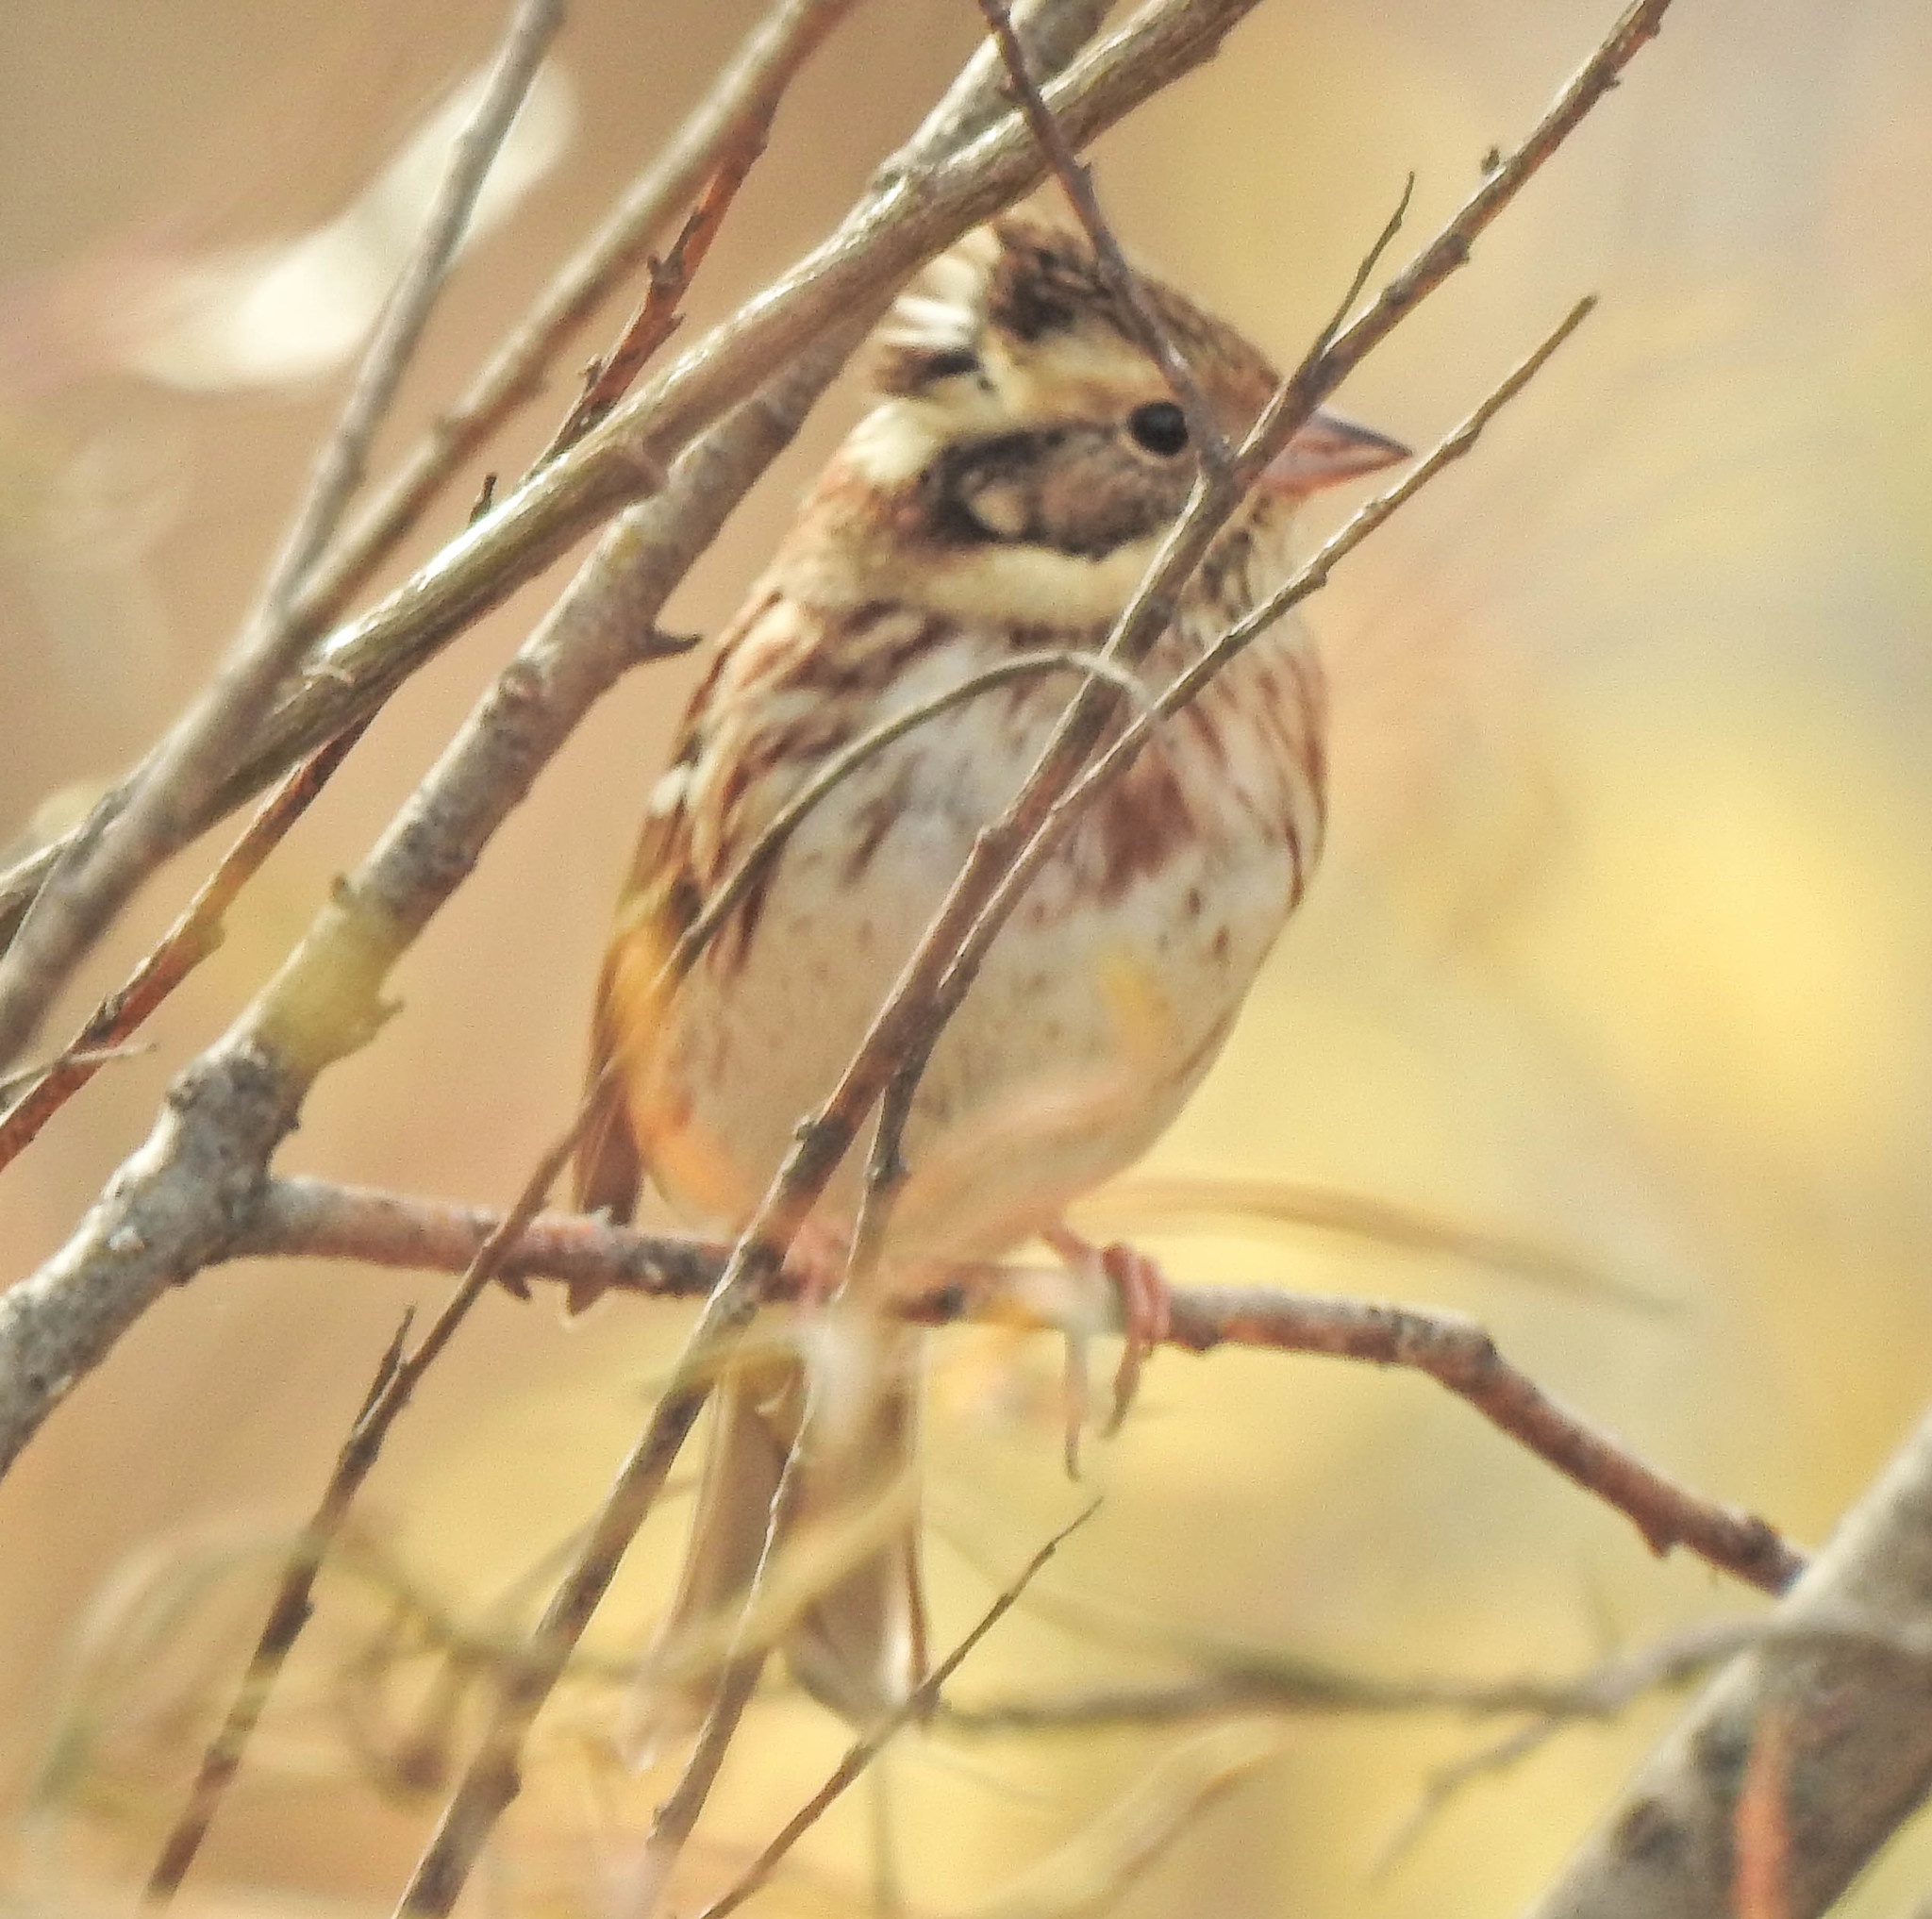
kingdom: Animalia
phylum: Chordata
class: Aves
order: Passeriformes
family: Emberizidae
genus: Emberiza
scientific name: Emberiza rustica
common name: Rustic bunting
